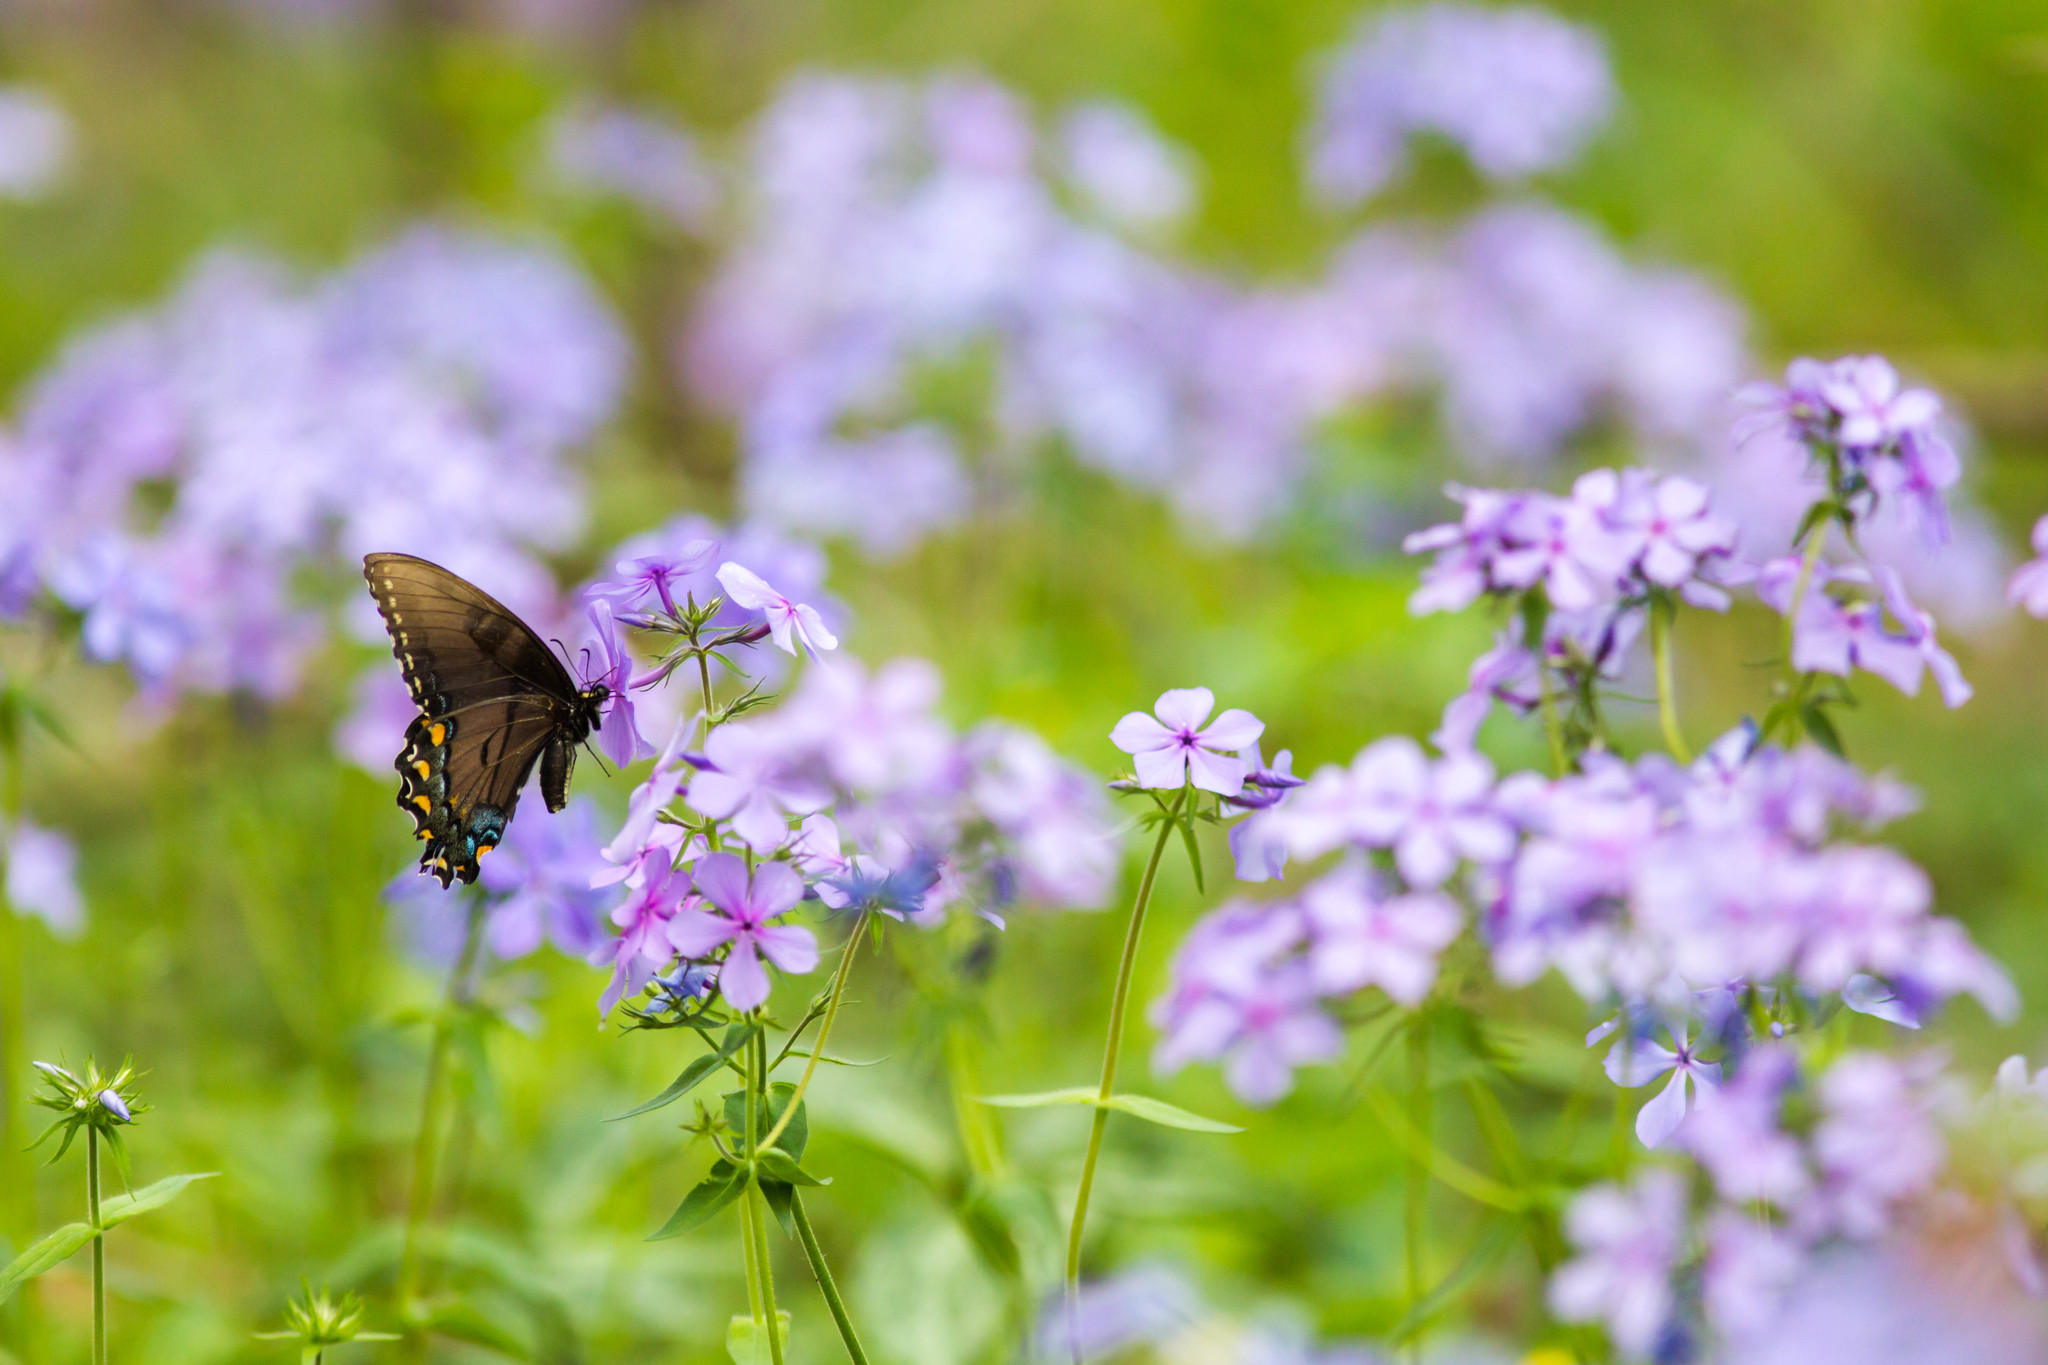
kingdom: Animalia
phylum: Arthropoda
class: Insecta
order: Lepidoptera
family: Papilionidae
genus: Papilio
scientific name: Papilio glaucus
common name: Tiger swallowtail
